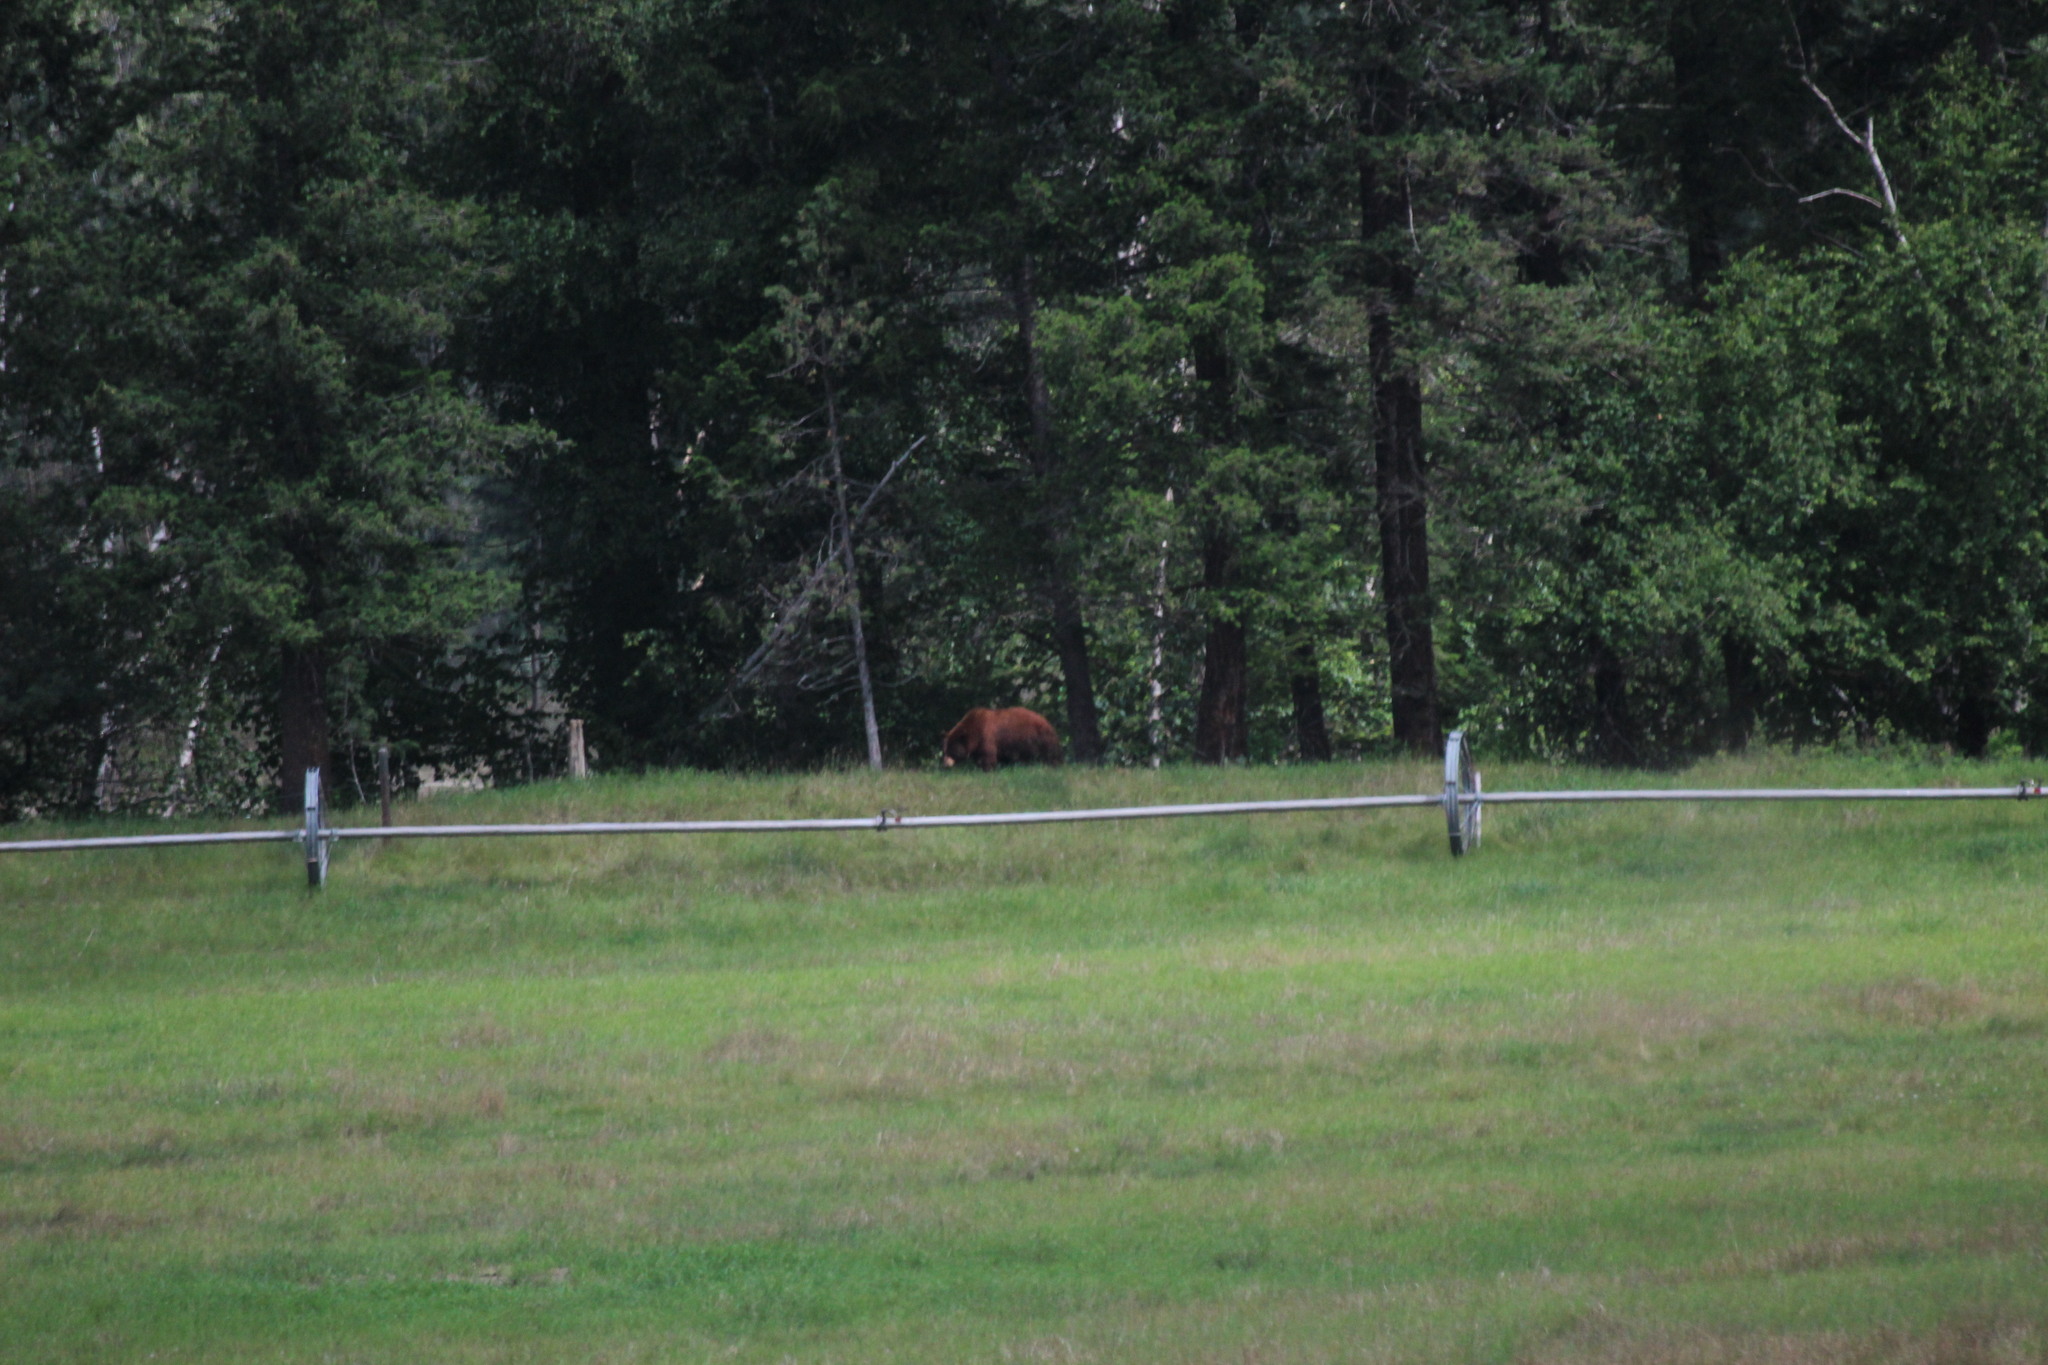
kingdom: Animalia
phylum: Chordata
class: Mammalia
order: Carnivora
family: Ursidae
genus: Ursus
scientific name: Ursus arctos
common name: Brown bear
